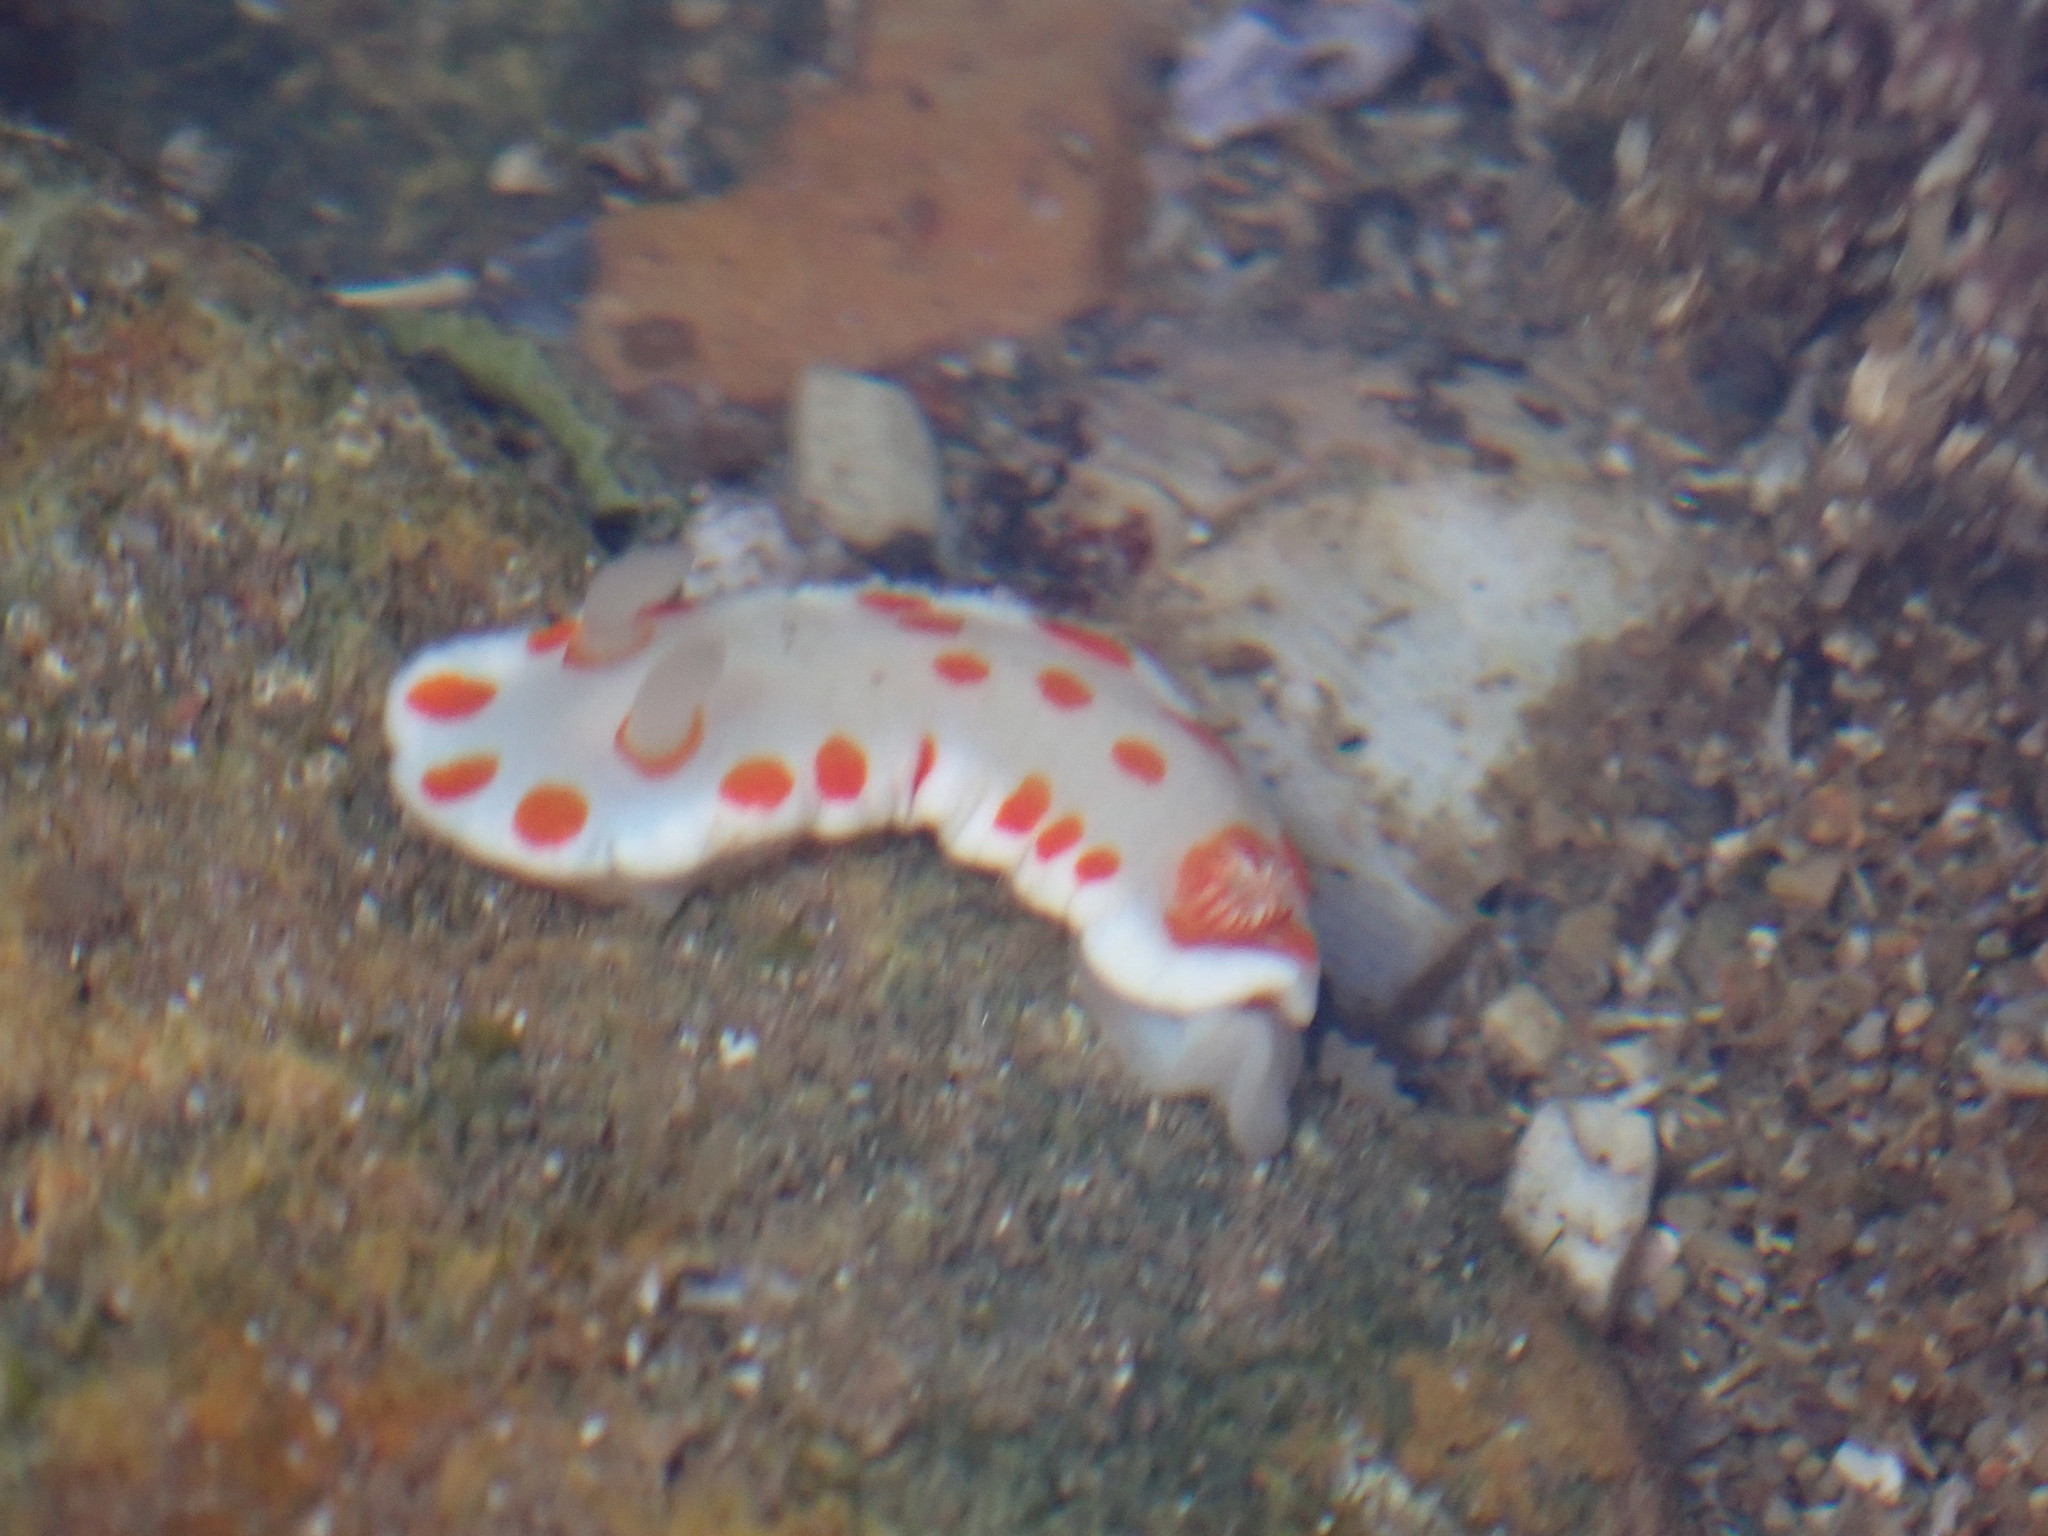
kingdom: Animalia
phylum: Mollusca
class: Gastropoda
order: Nudibranchia
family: Chromodorididae
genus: Goniobranchus
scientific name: Goniobranchus tasmaniensis
